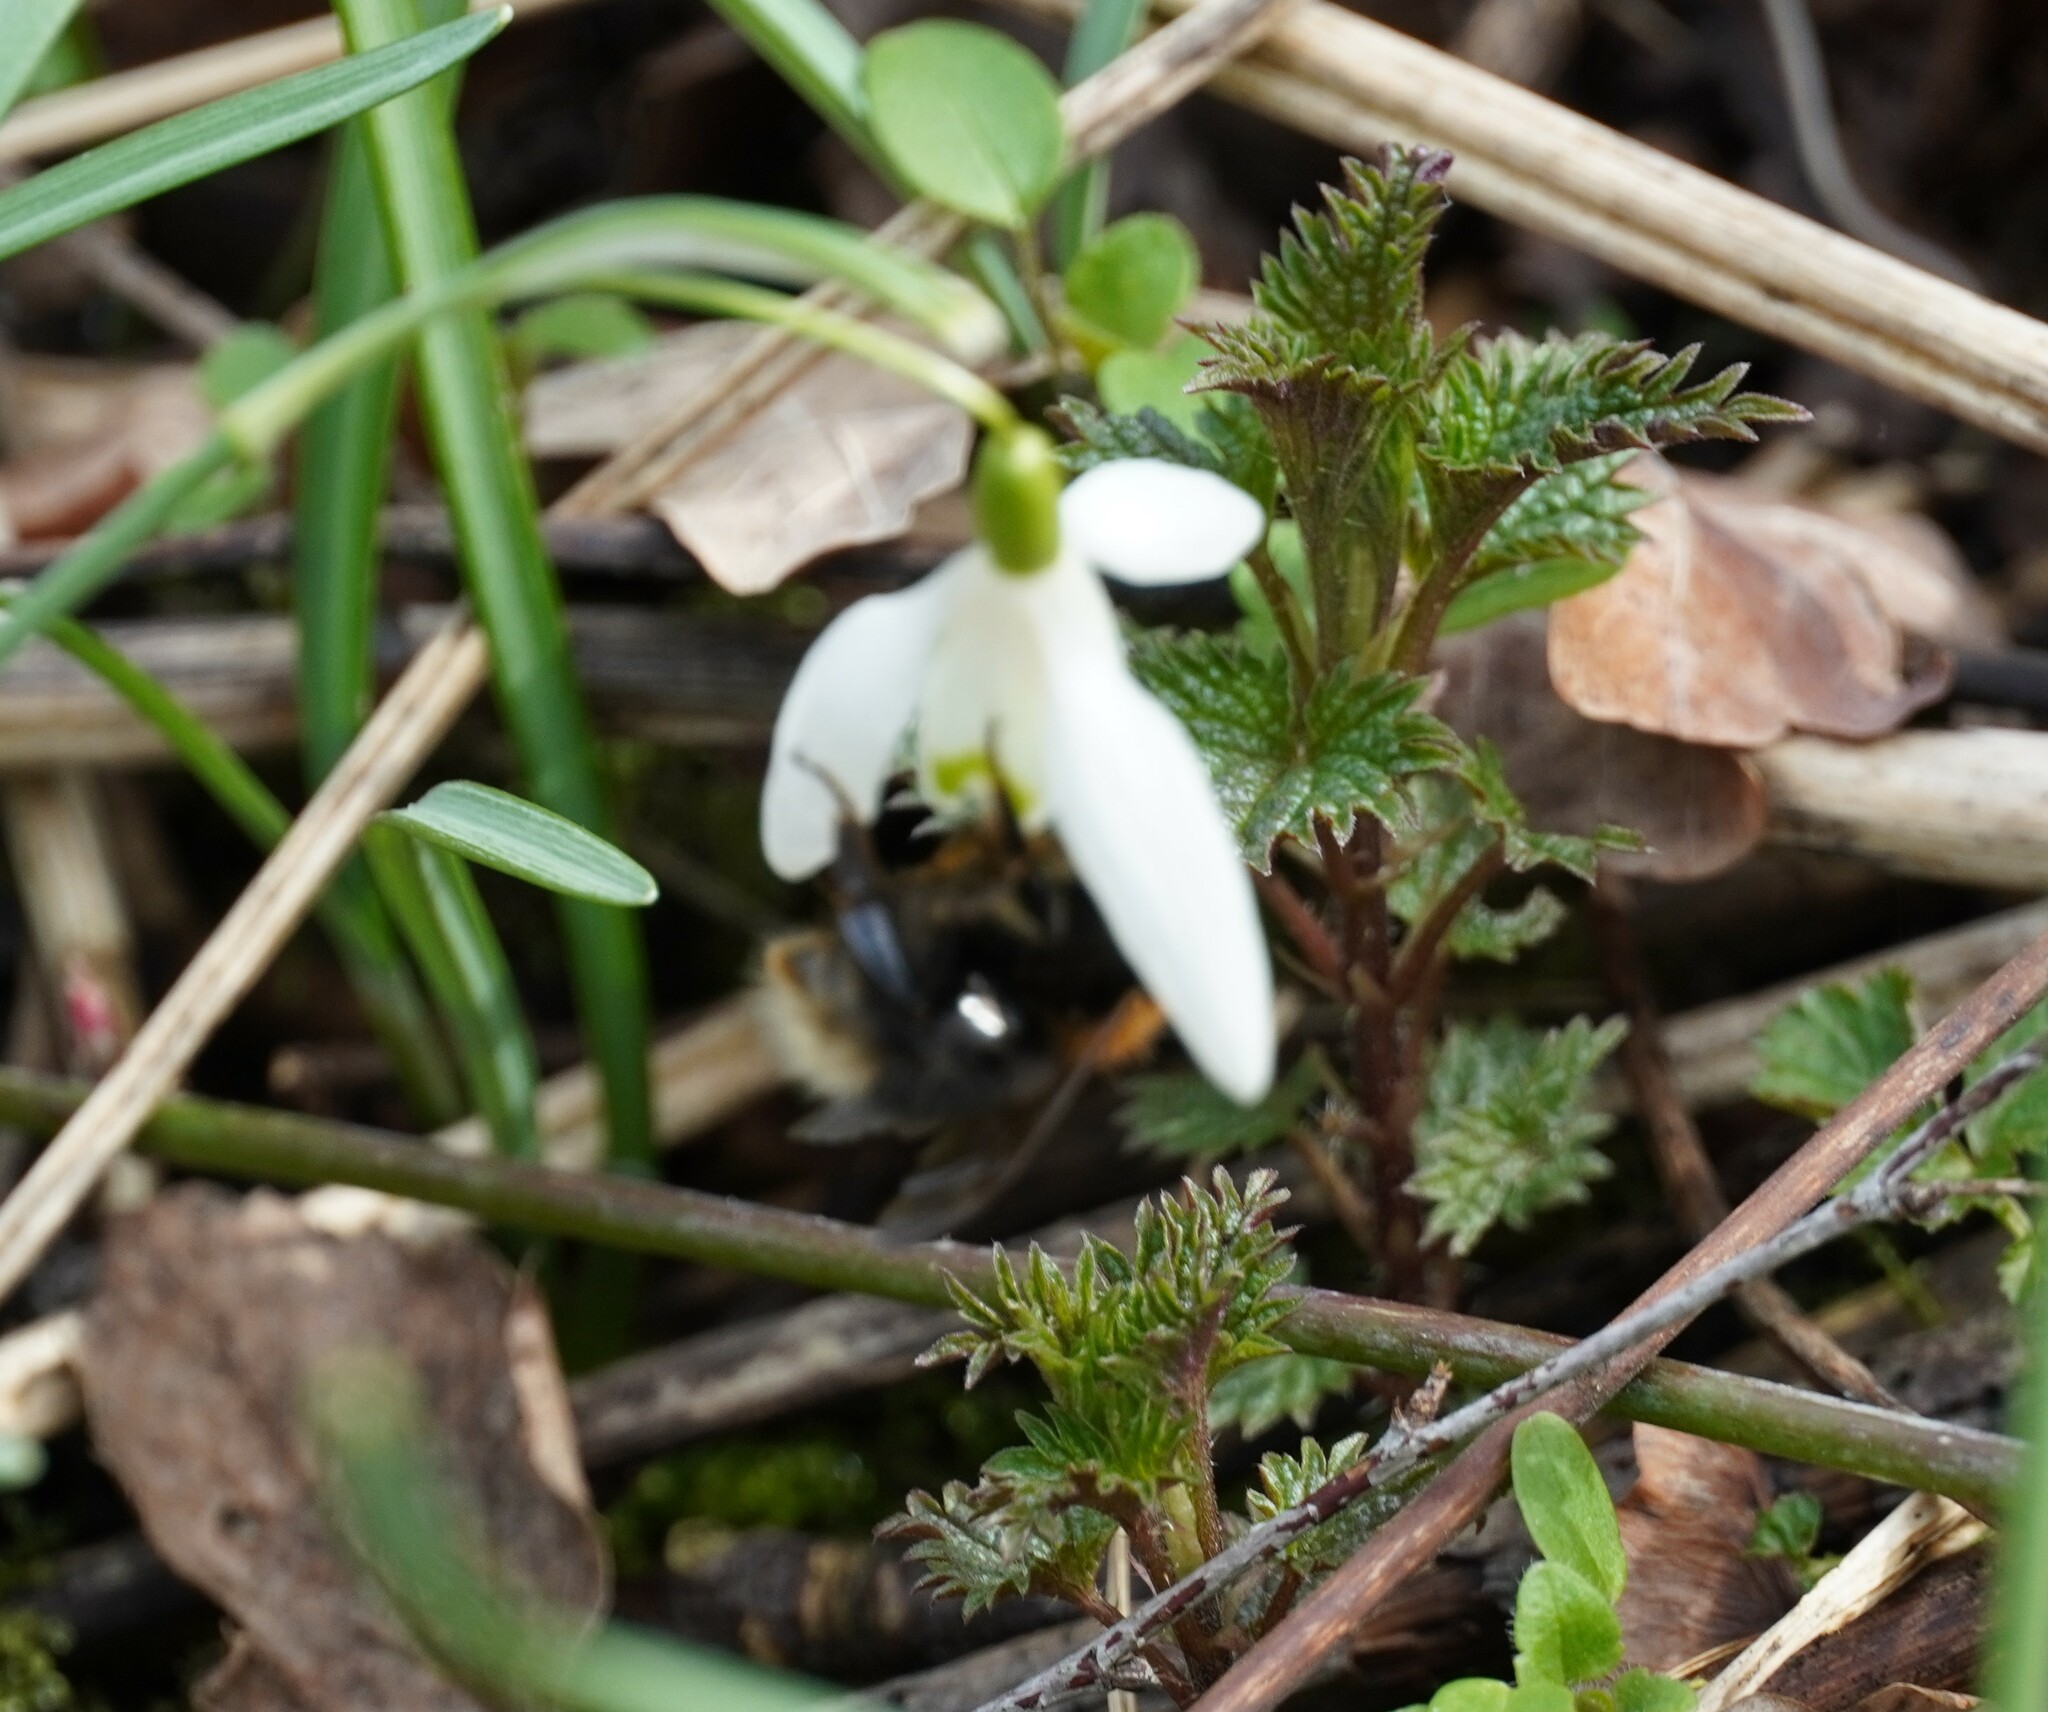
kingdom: Animalia
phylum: Arthropoda
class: Insecta
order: Hymenoptera
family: Apidae
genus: Bombus
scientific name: Bombus hypnorum
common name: New garden bumblebee
